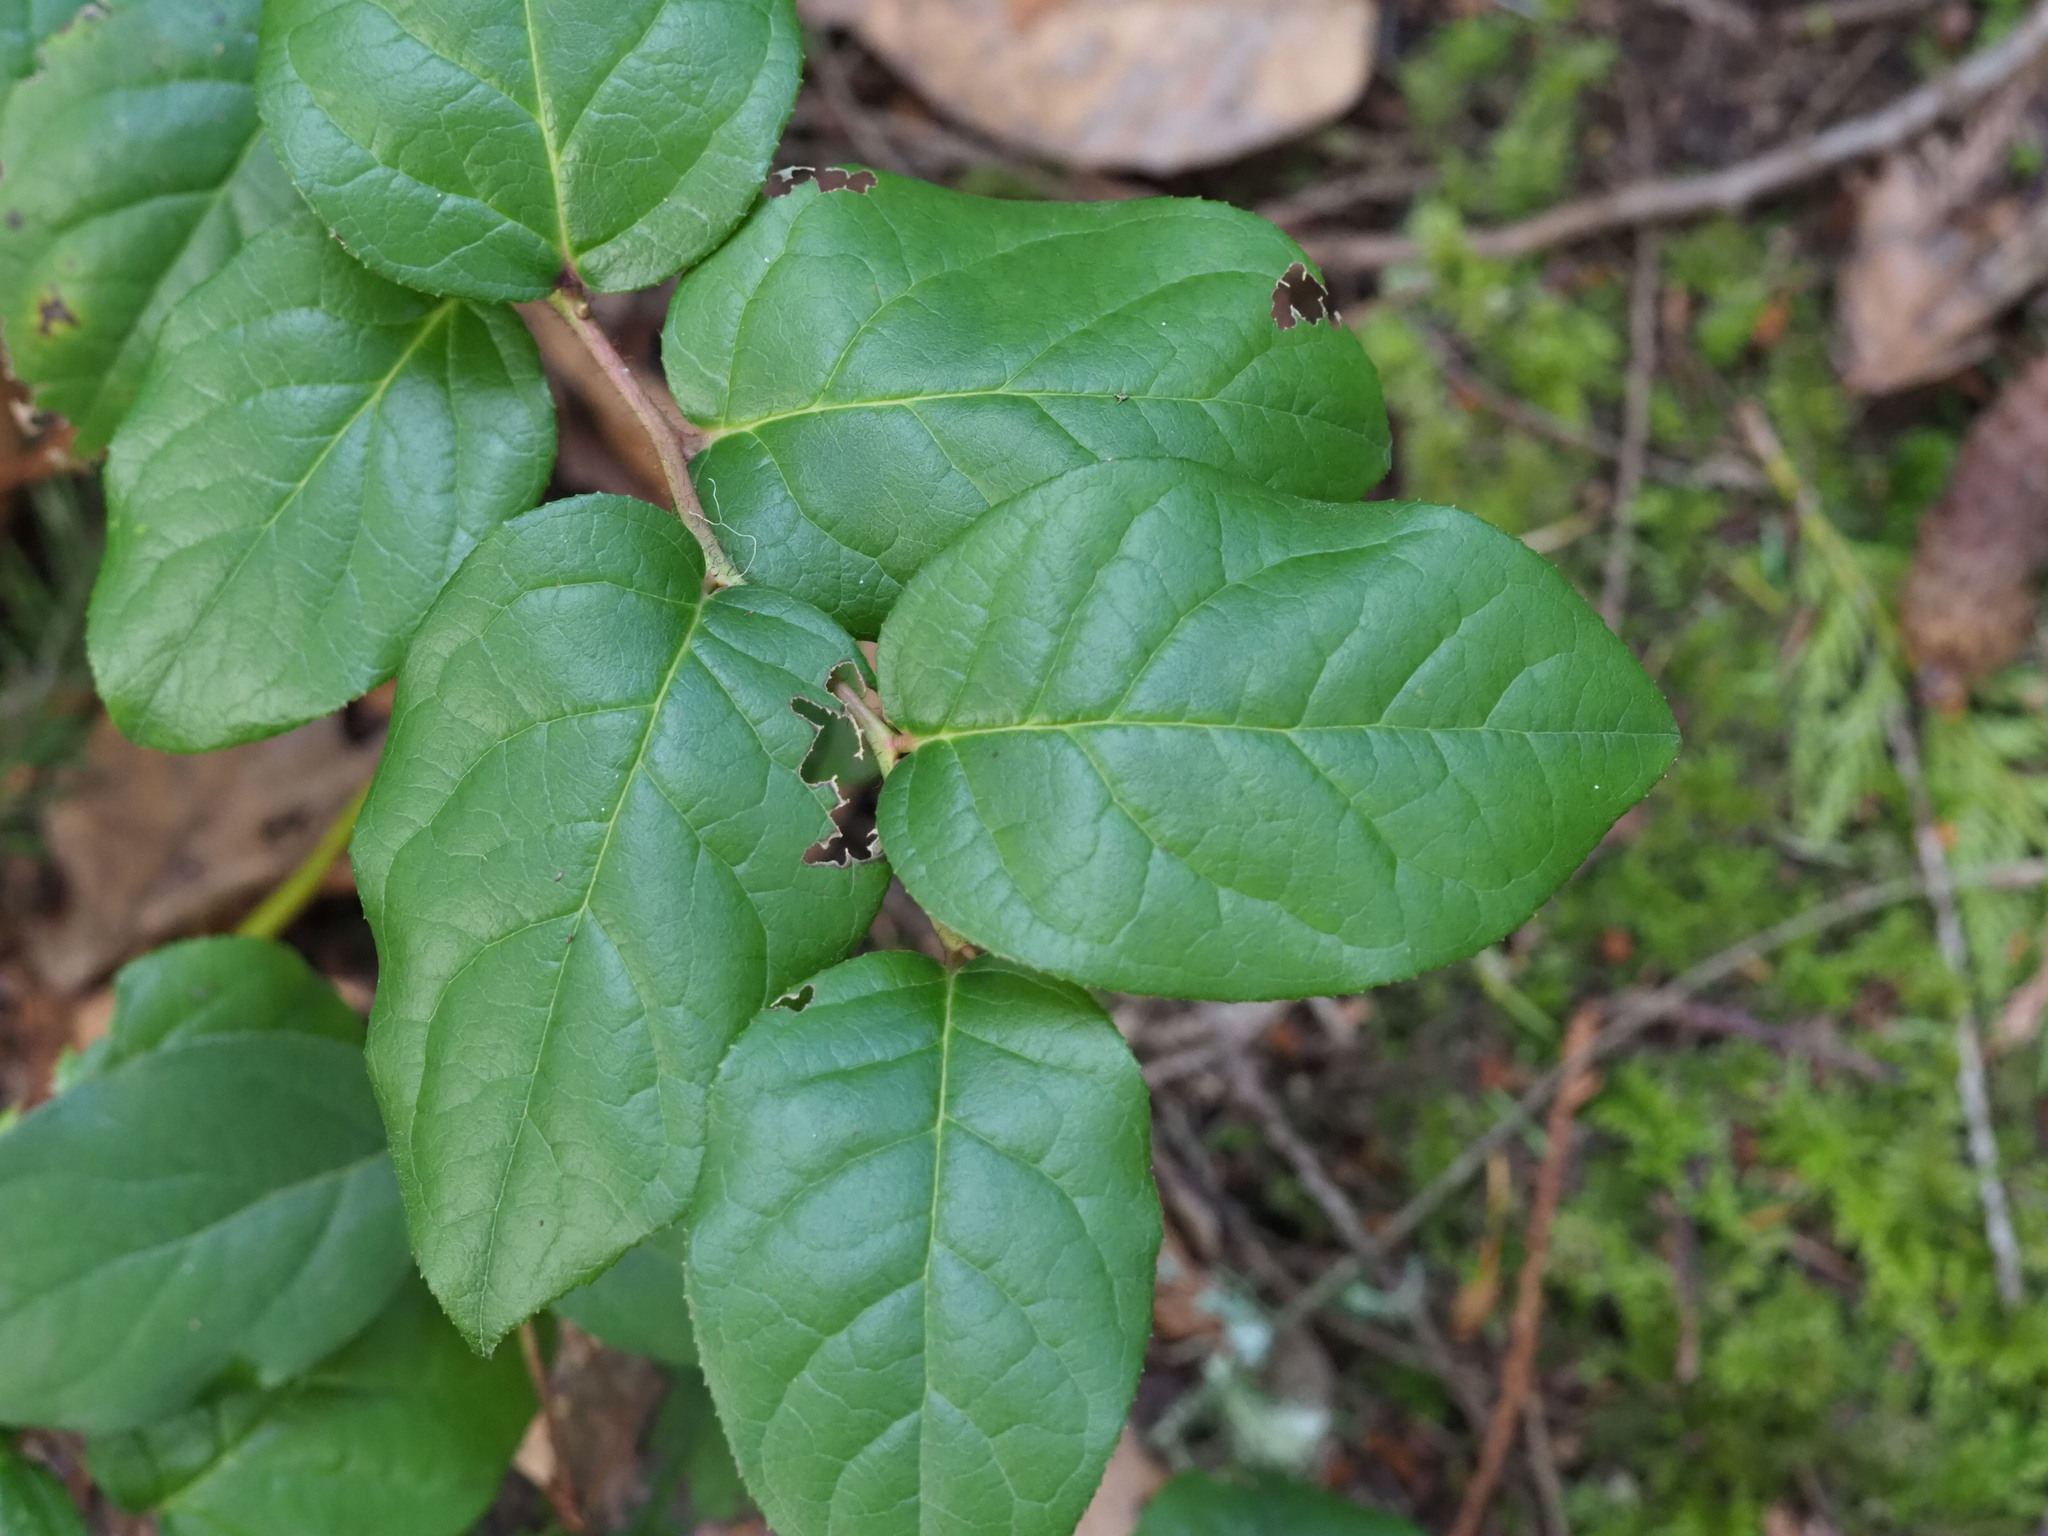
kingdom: Plantae
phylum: Tracheophyta
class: Magnoliopsida
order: Ericales
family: Ericaceae
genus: Gaultheria
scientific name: Gaultheria shallon
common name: Shallon
